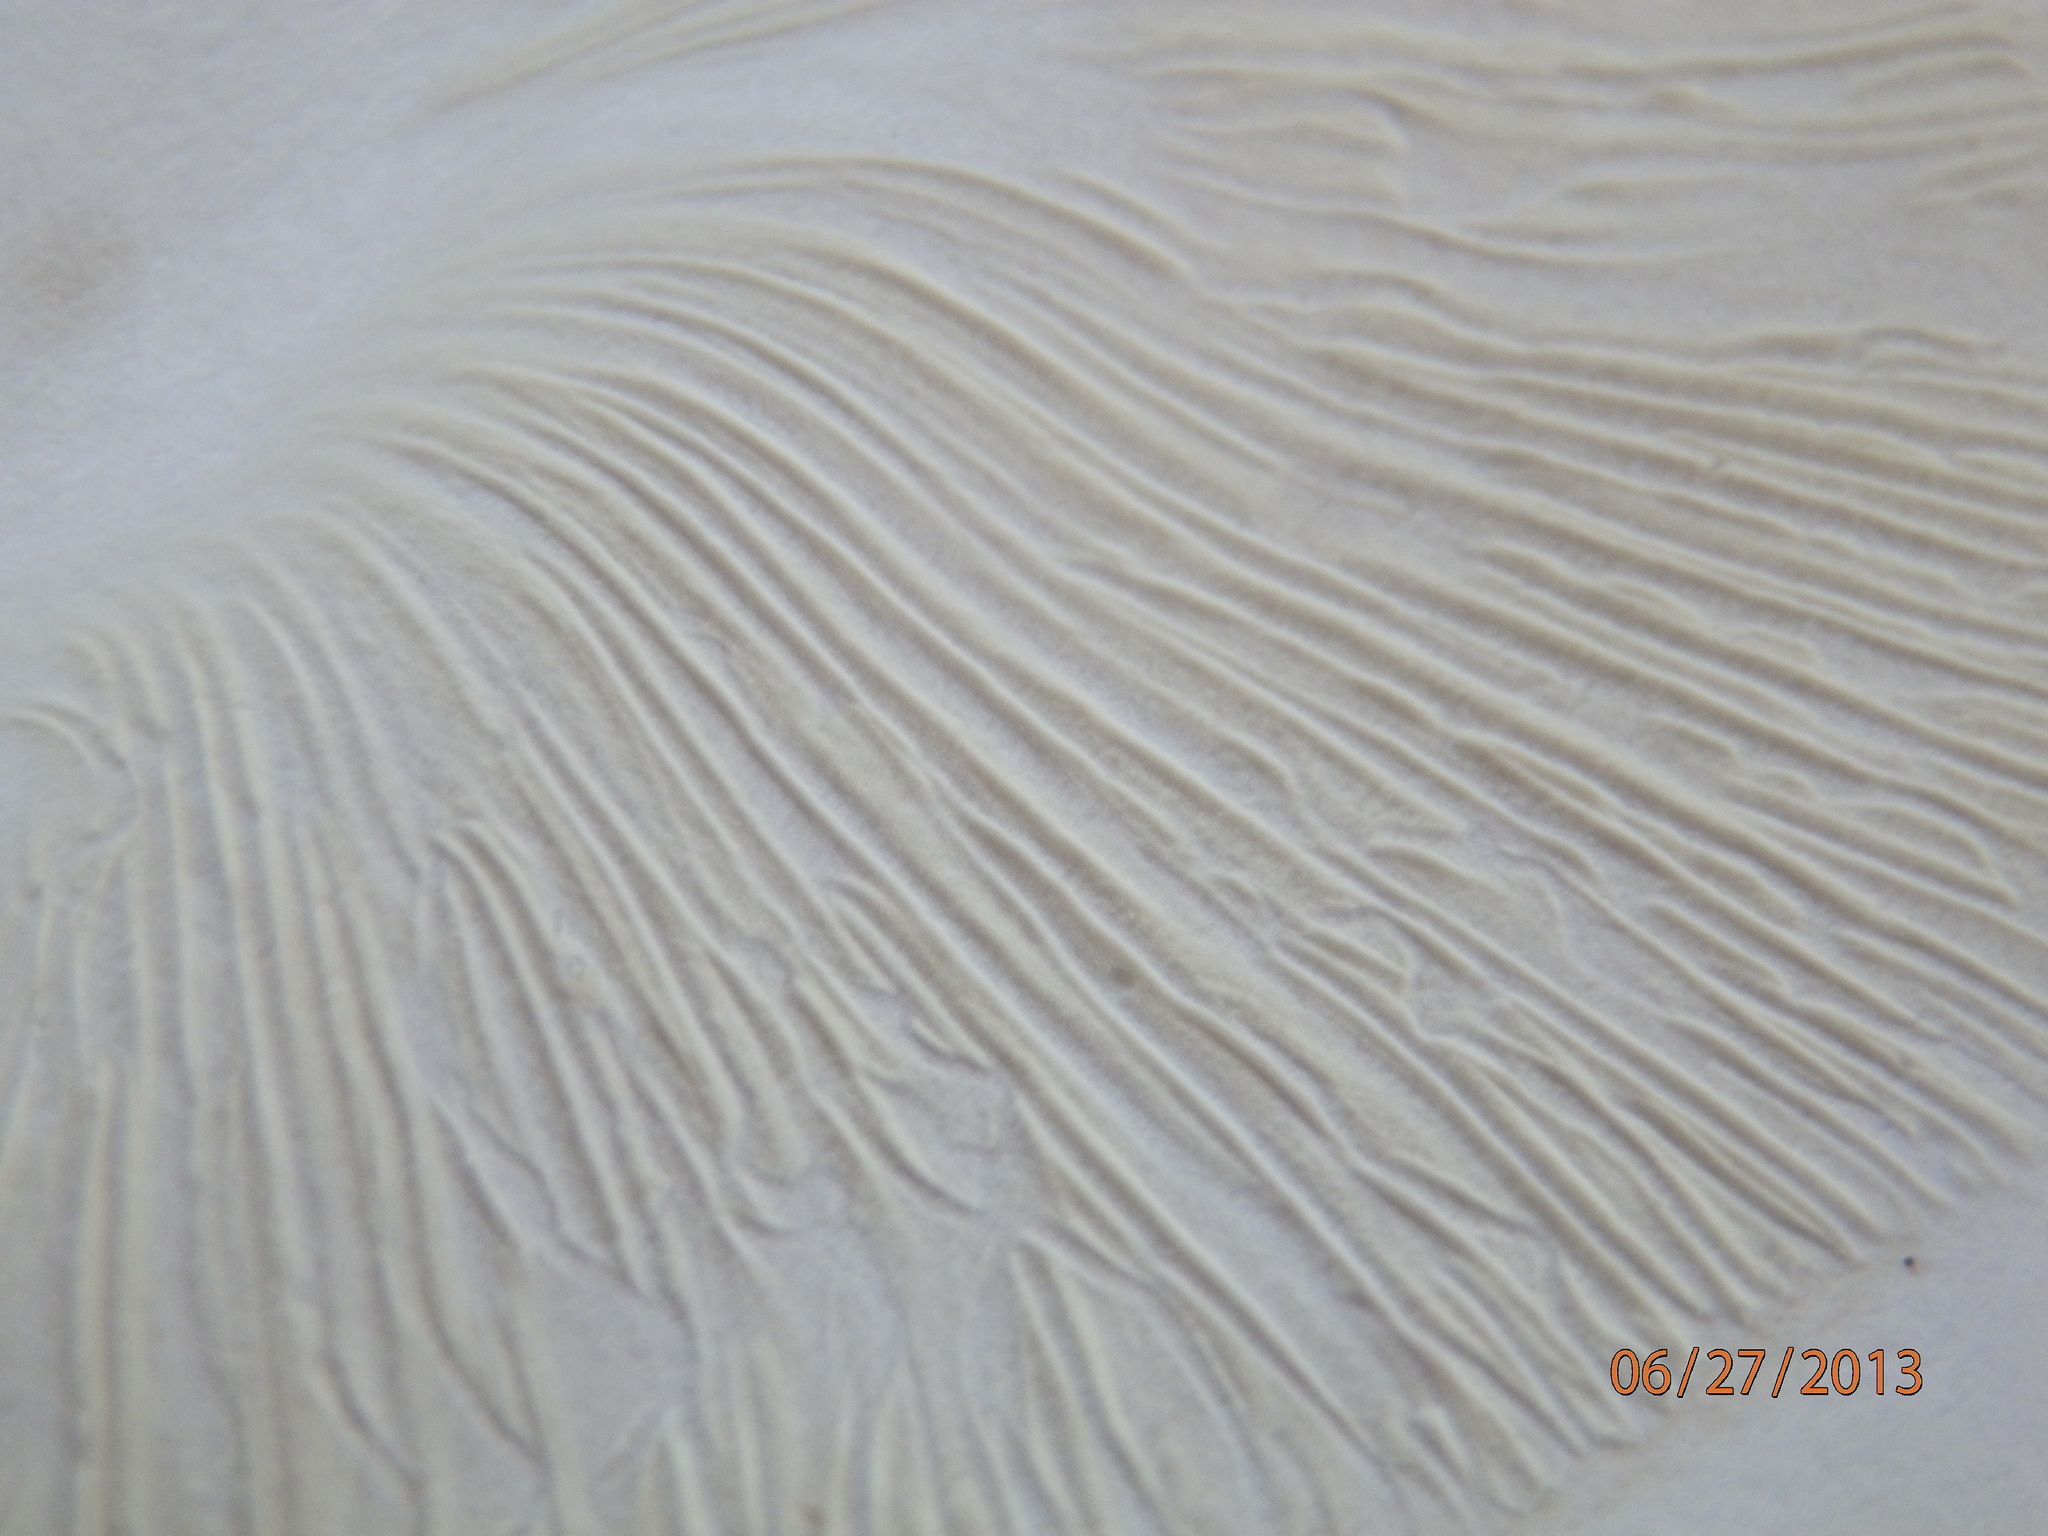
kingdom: Fungi
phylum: Basidiomycota
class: Agaricomycetes
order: Agaricales
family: Tricholomataceae
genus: Megacollybia
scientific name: Megacollybia rodmanii
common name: Eastern american platterful mushroom
